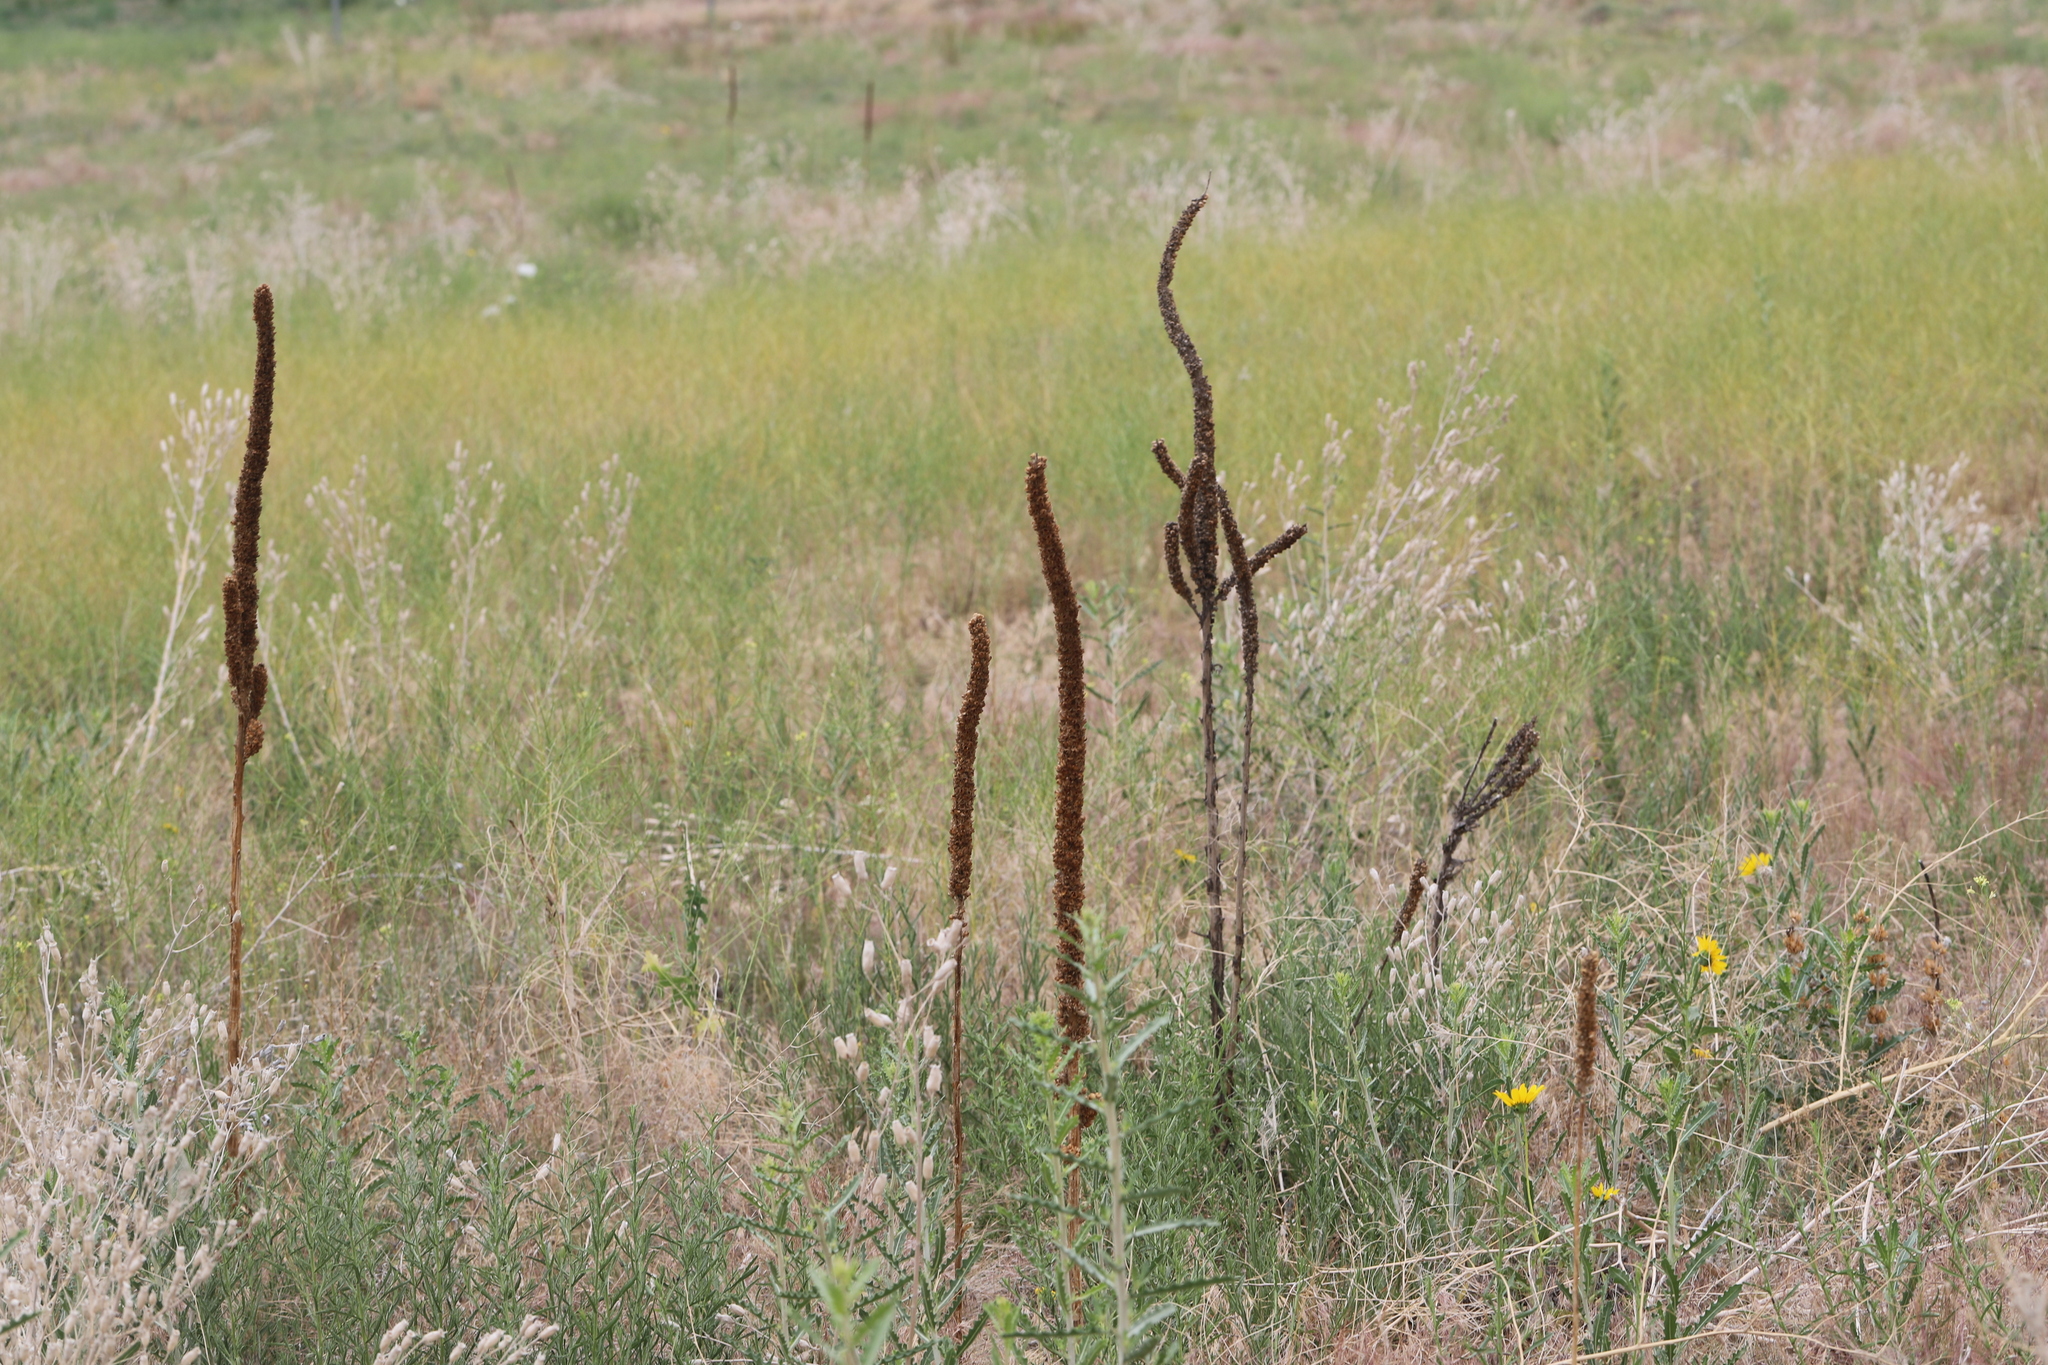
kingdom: Plantae
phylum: Tracheophyta
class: Magnoliopsida
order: Lamiales
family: Scrophulariaceae
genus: Verbascum
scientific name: Verbascum thapsus
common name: Common mullein
